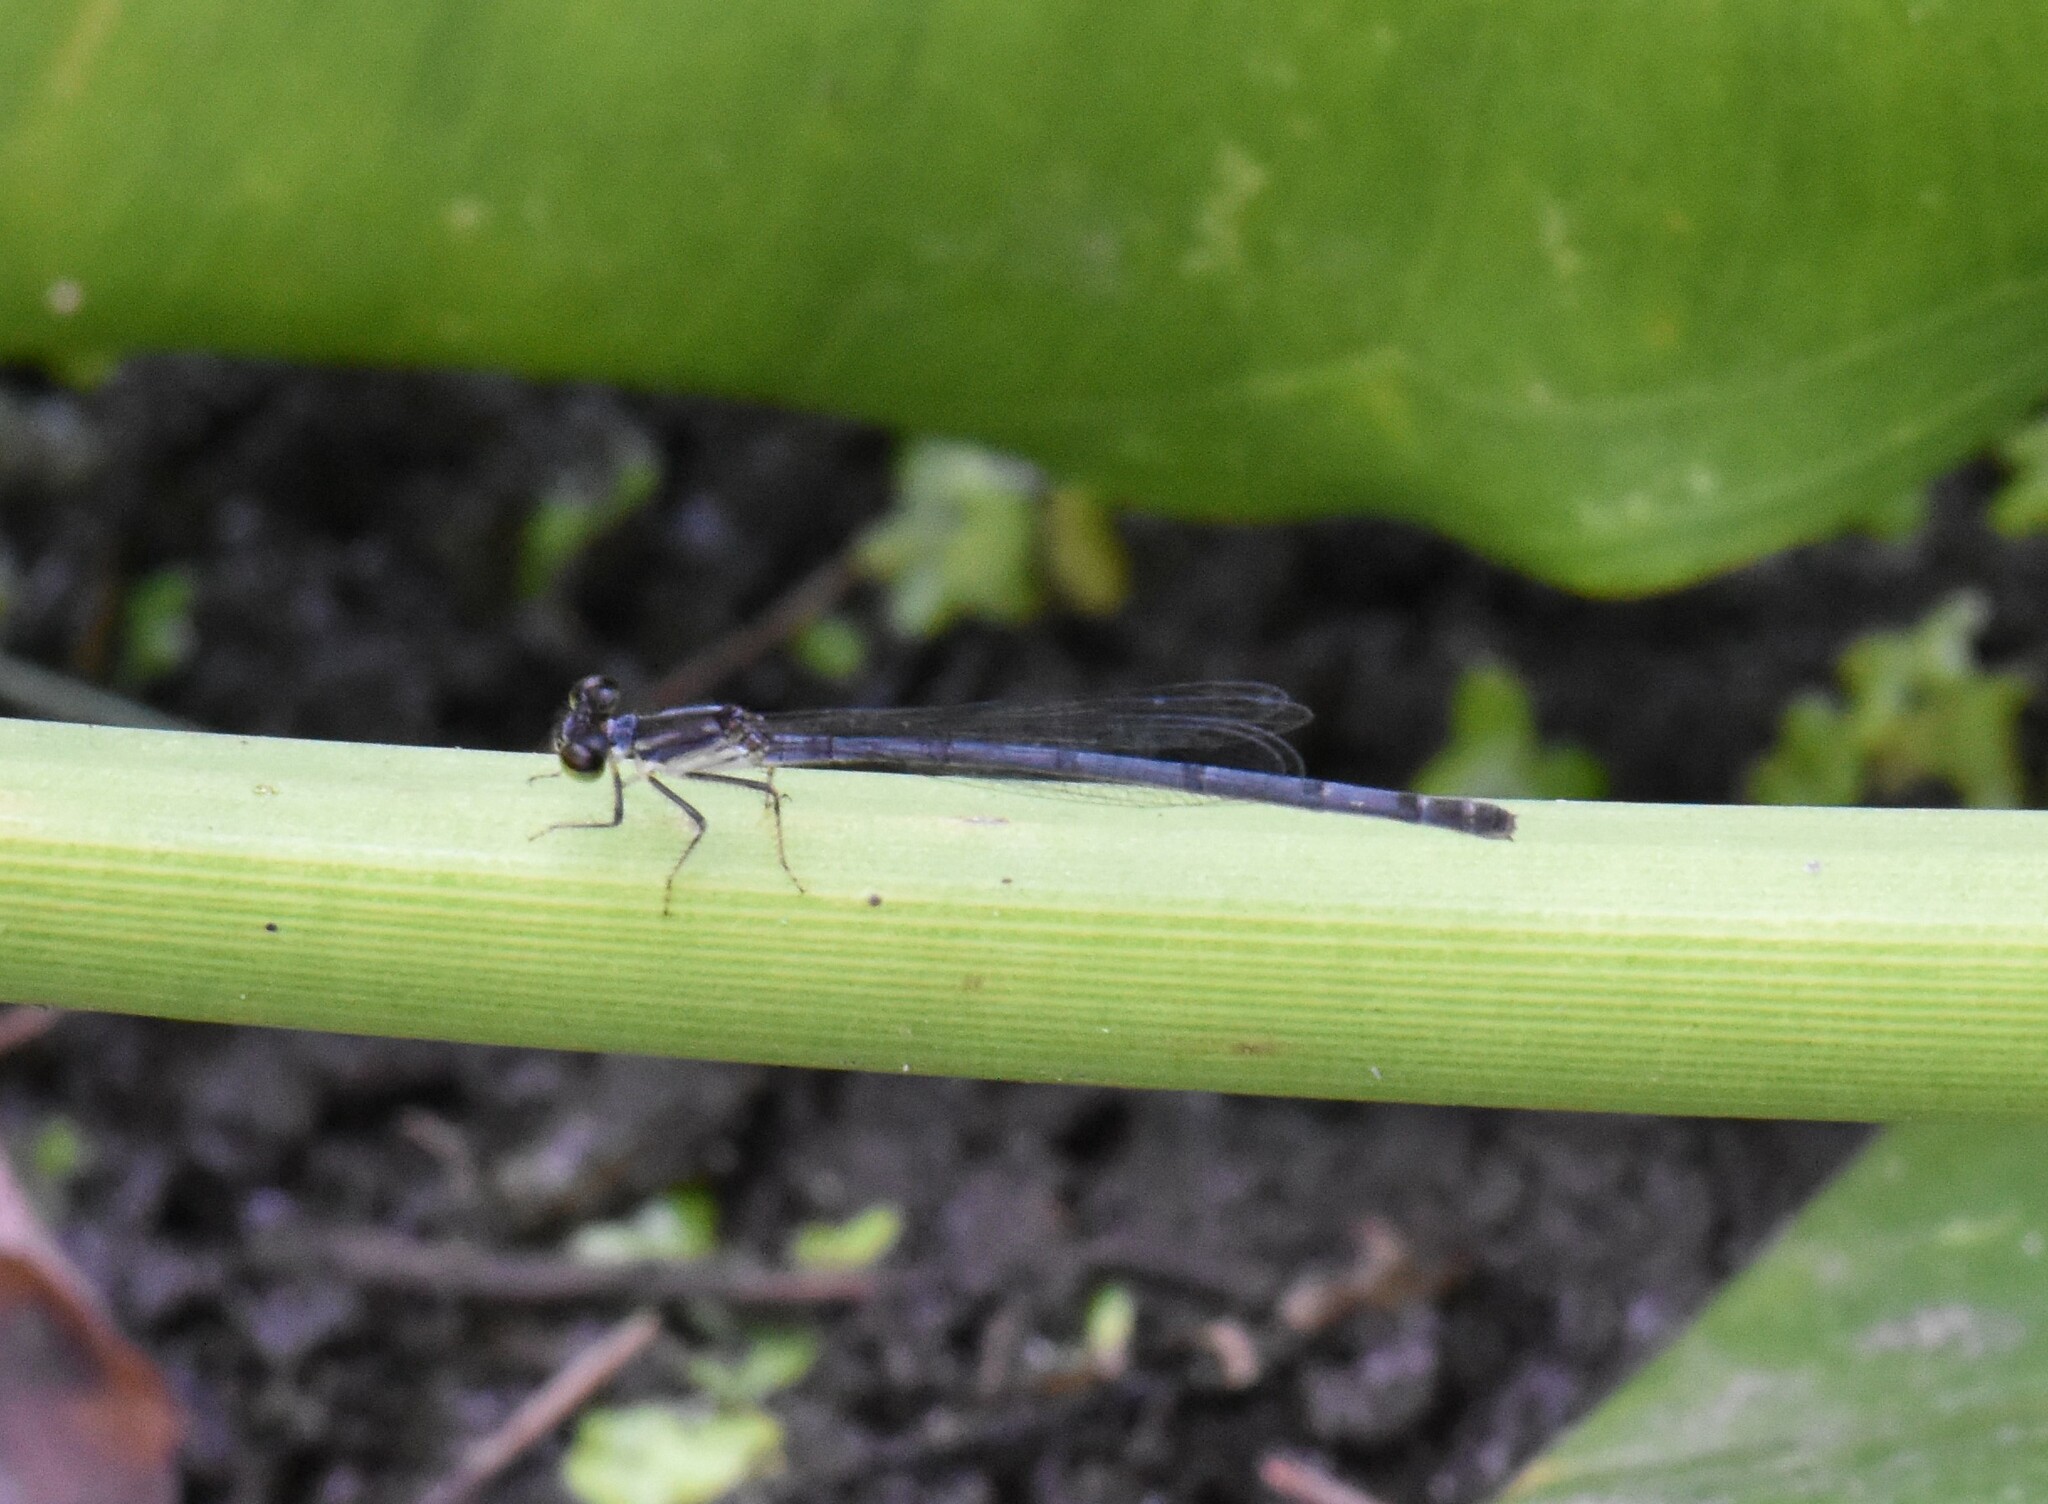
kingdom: Animalia
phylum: Arthropoda
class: Insecta
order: Odonata
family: Coenagrionidae
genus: Ischnura
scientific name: Ischnura posita
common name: Fragile forktail
